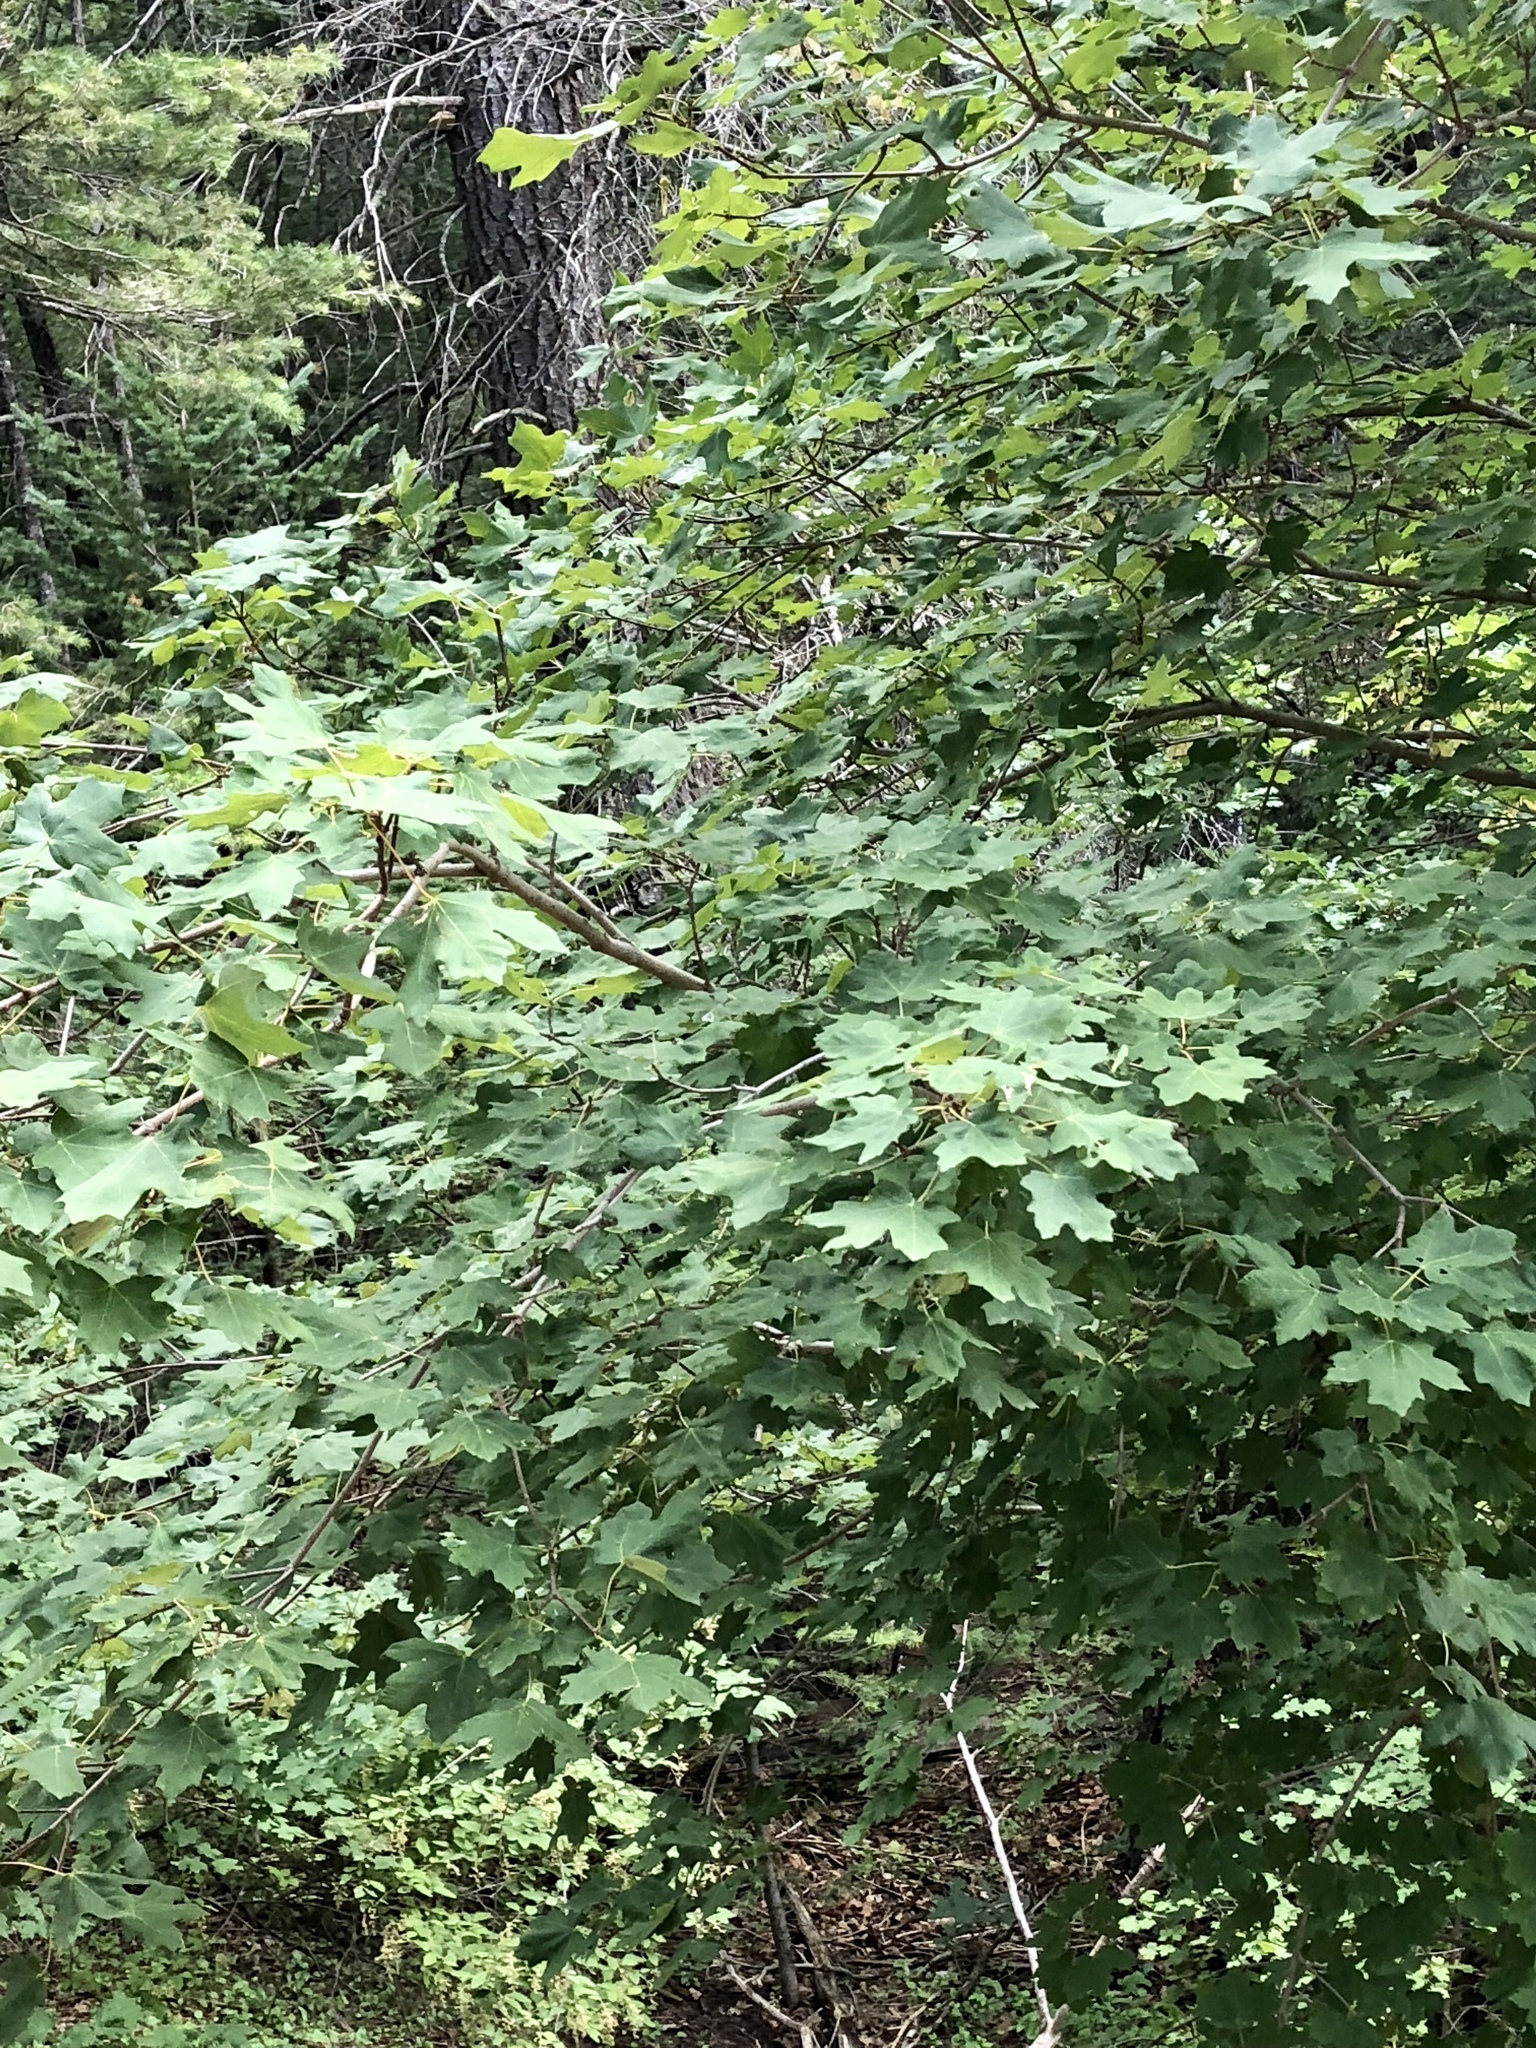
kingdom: Plantae
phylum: Tracheophyta
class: Magnoliopsida
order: Sapindales
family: Sapindaceae
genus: Acer
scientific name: Acer grandidentatum
